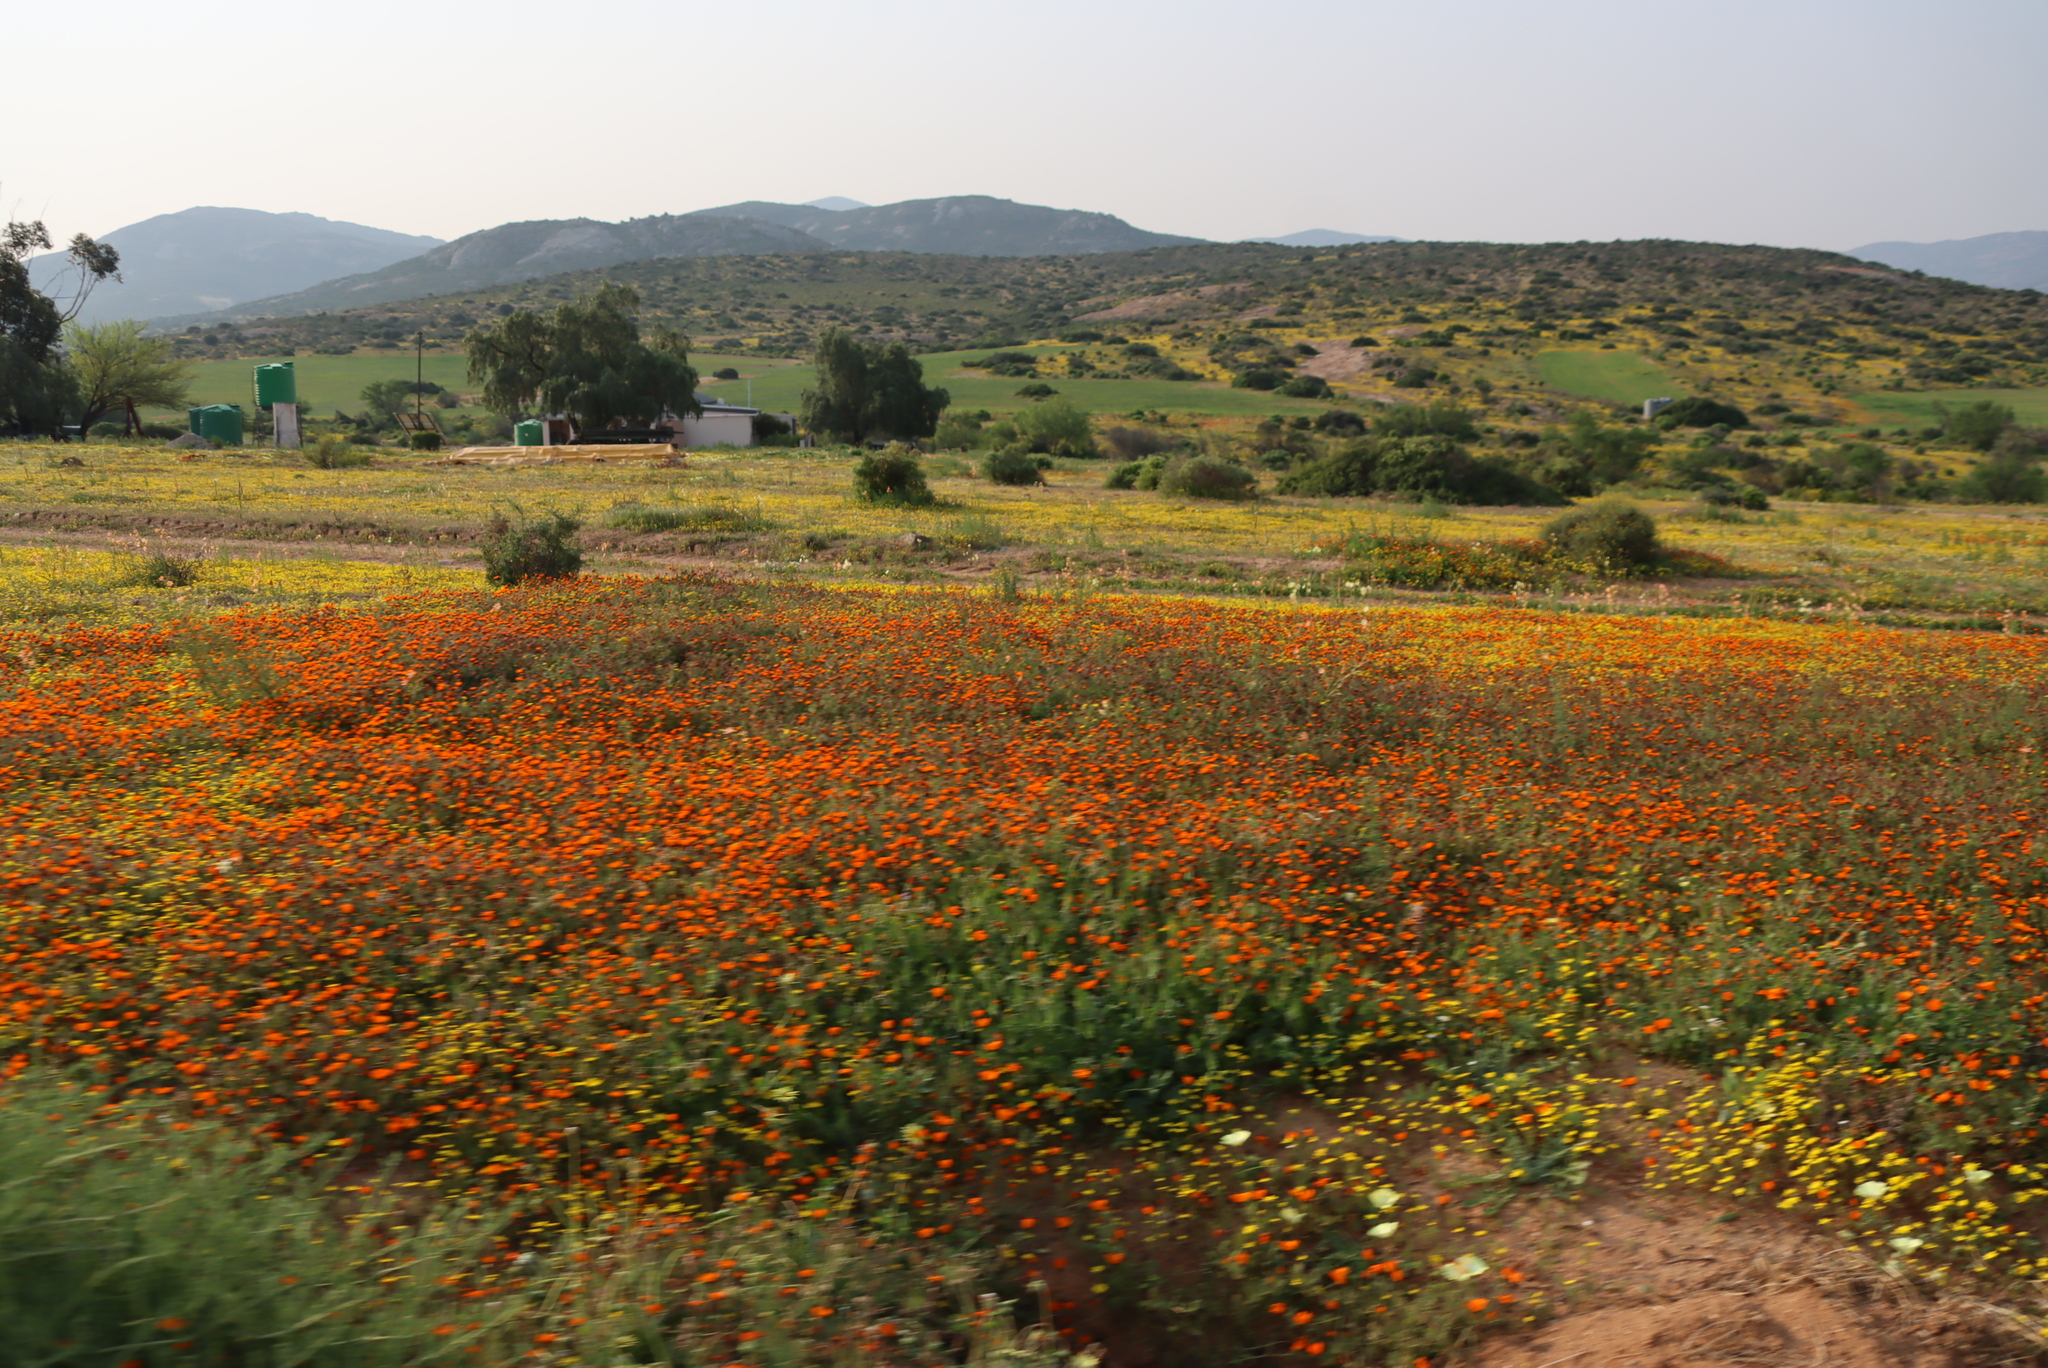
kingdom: Plantae
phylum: Tracheophyta
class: Magnoliopsida
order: Asterales
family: Asteraceae
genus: Dimorphotheca
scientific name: Dimorphotheca sinuata
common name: Glandular cape marigold
